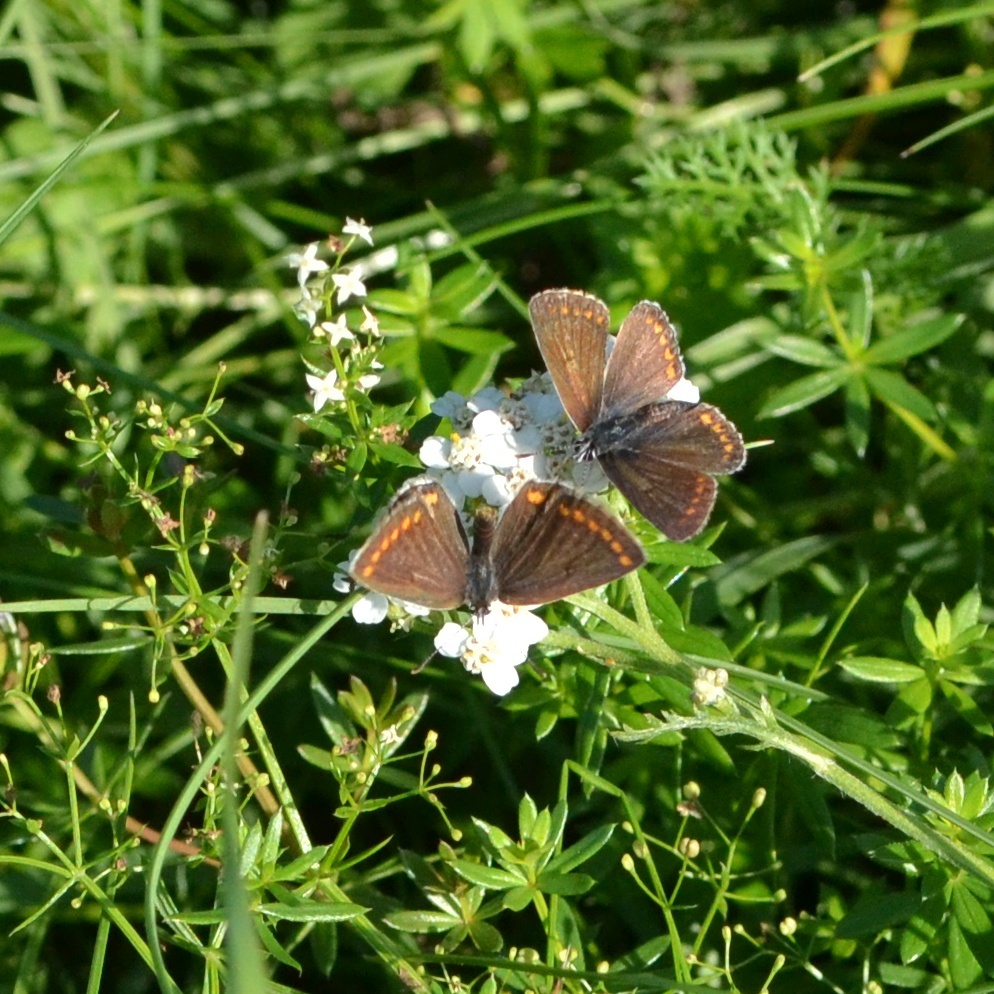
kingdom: Animalia
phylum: Arthropoda
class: Insecta
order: Lepidoptera
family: Lycaenidae
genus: Polyommatus
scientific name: Polyommatus icarus
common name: Common blue
